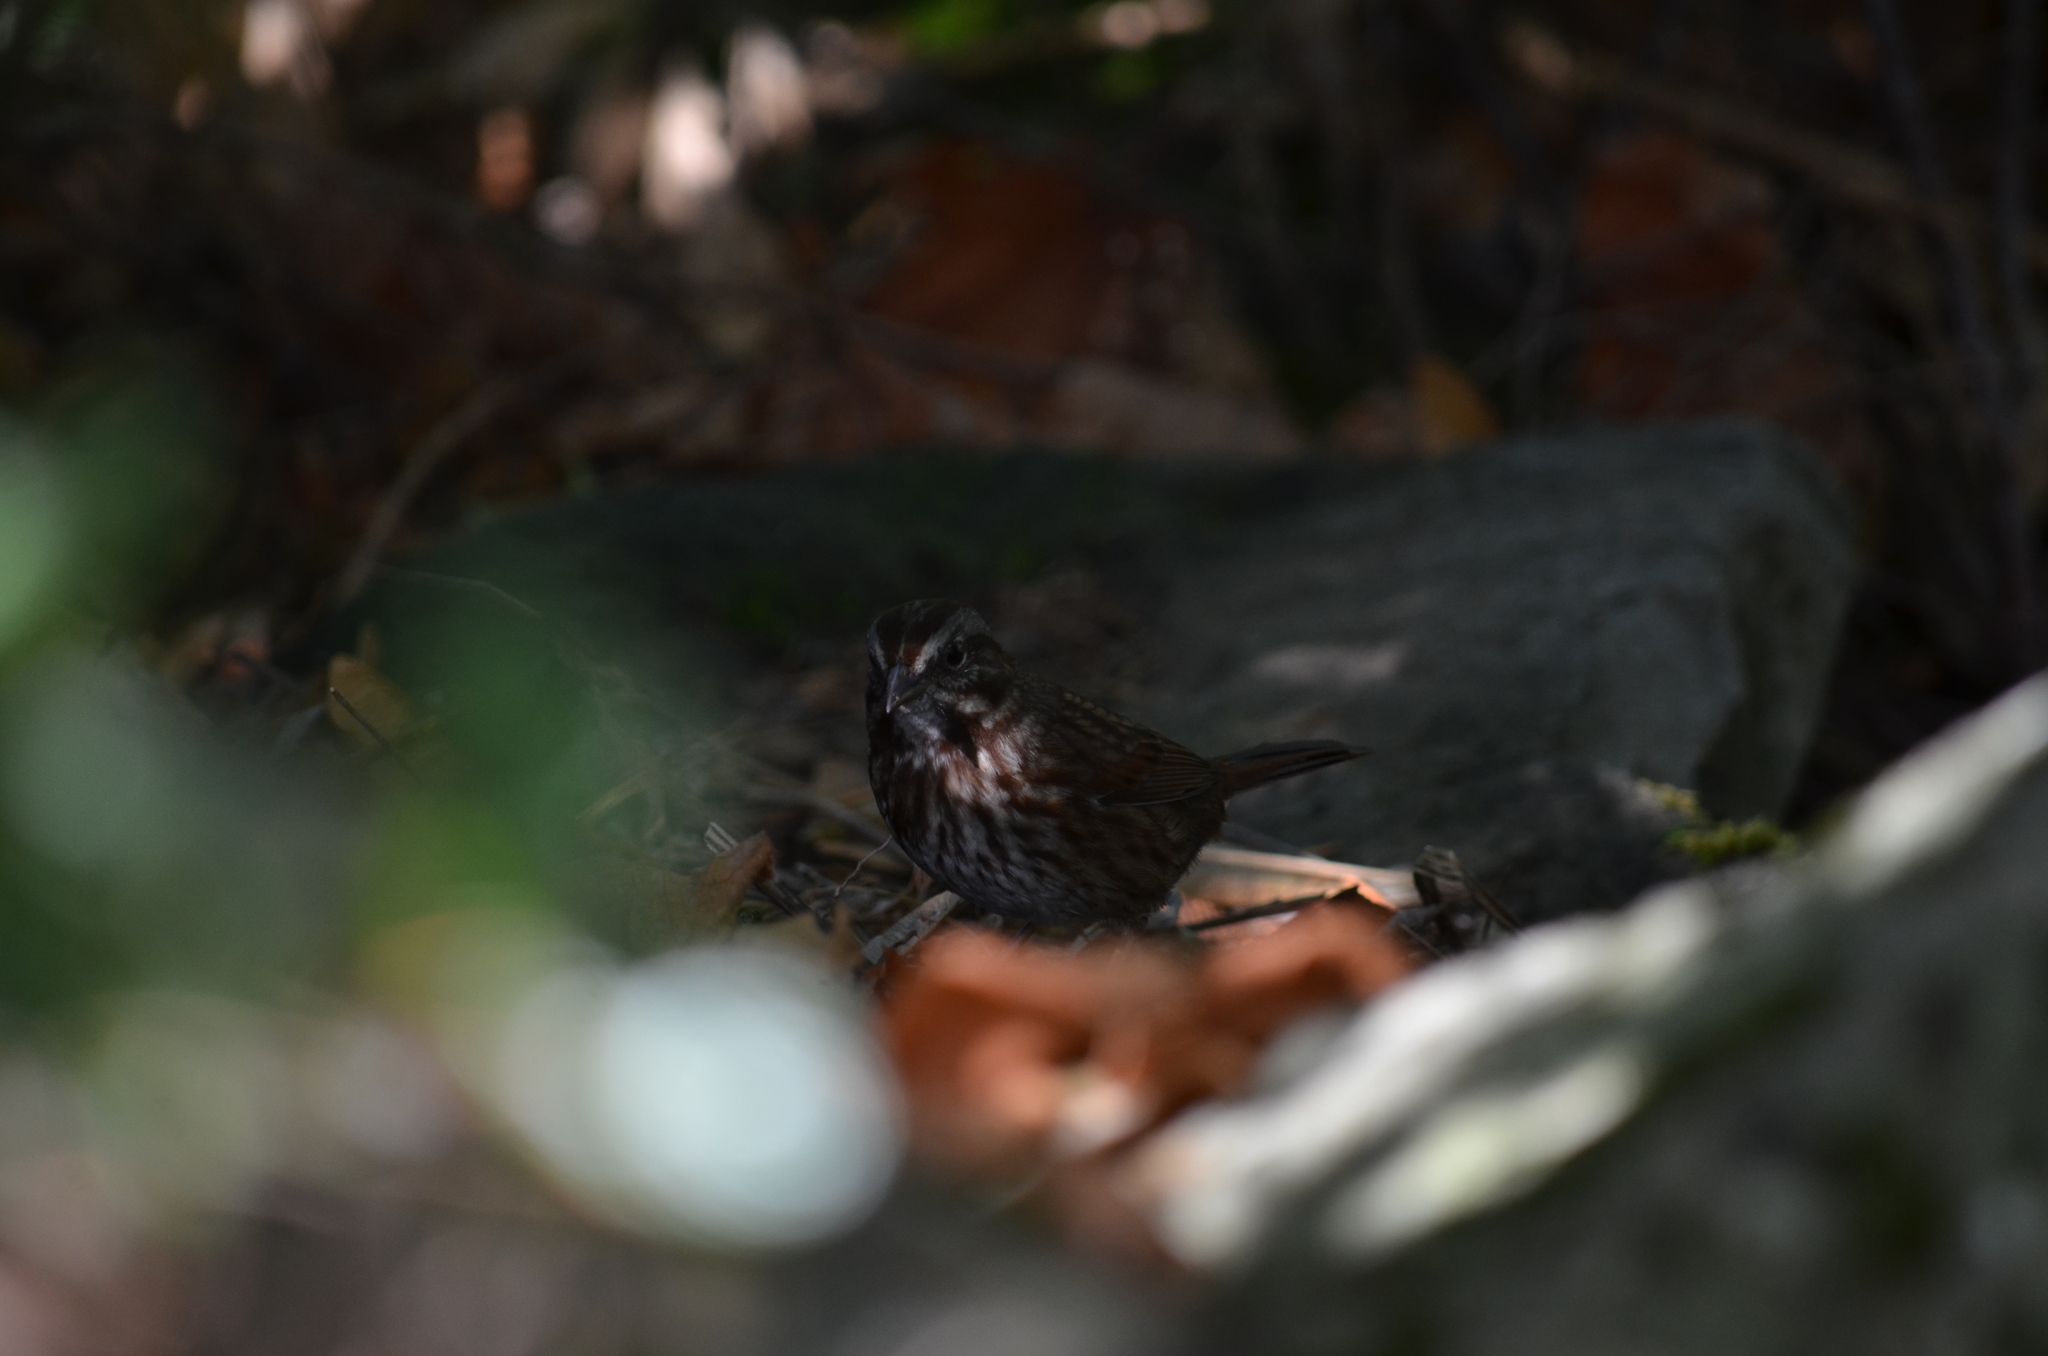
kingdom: Animalia
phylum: Chordata
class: Aves
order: Passeriformes
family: Passerellidae
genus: Melospiza
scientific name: Melospiza melodia
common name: Song sparrow
